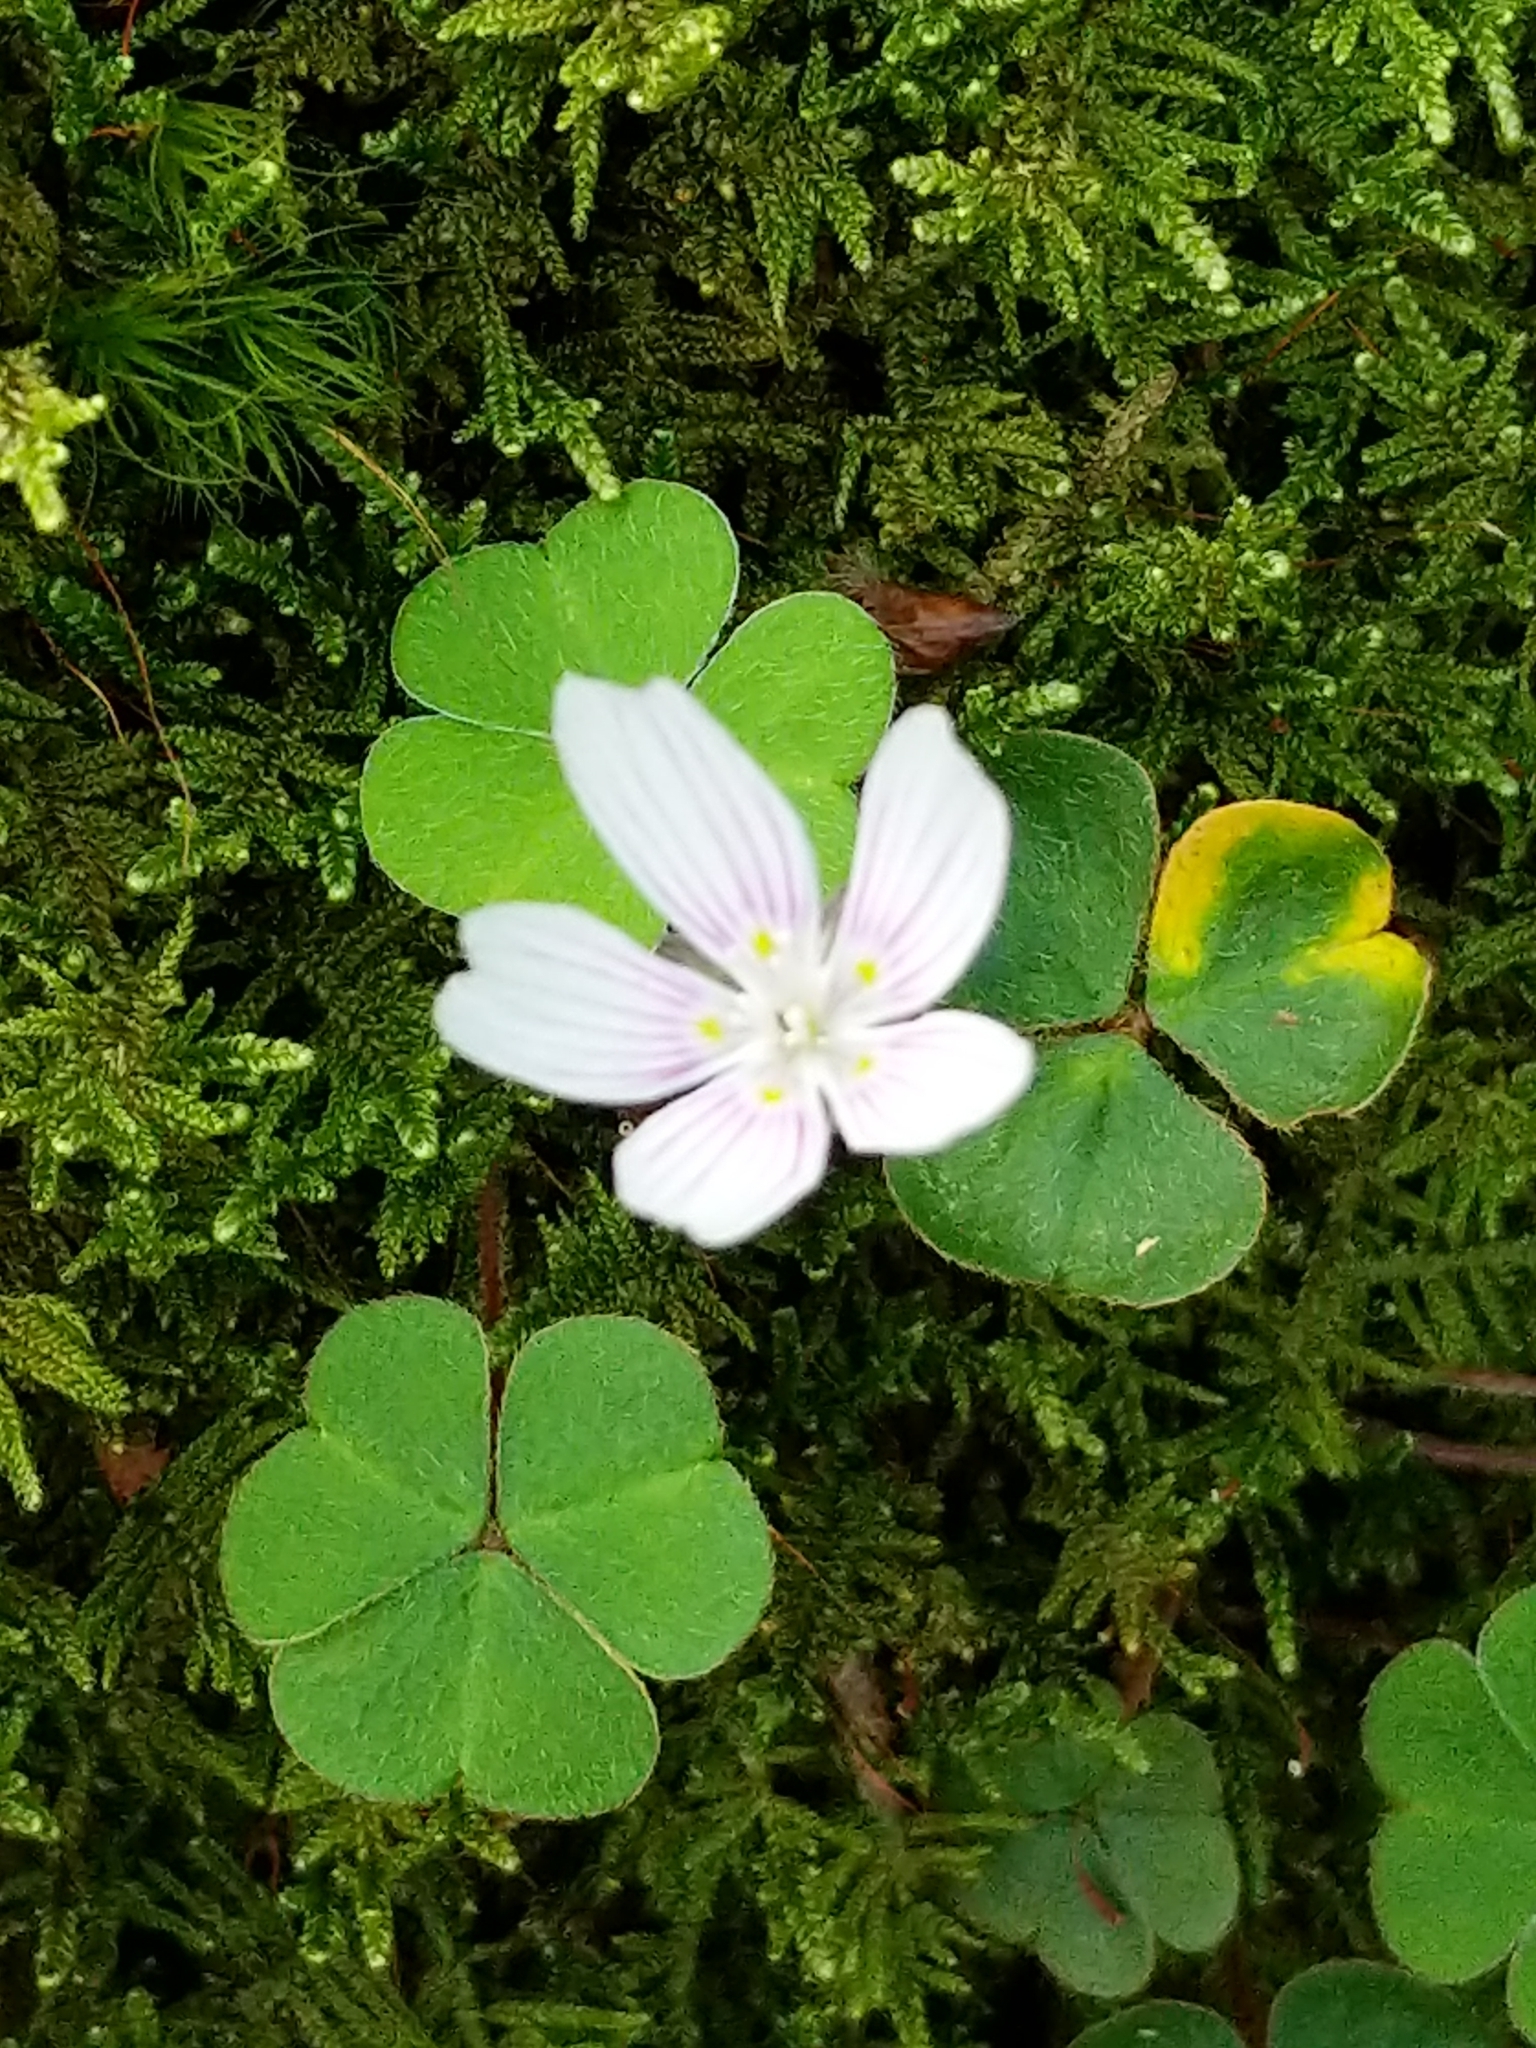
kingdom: Plantae
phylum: Tracheophyta
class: Magnoliopsida
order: Oxalidales
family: Oxalidaceae
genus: Oxalis
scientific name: Oxalis montana
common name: American wood-sorrel
